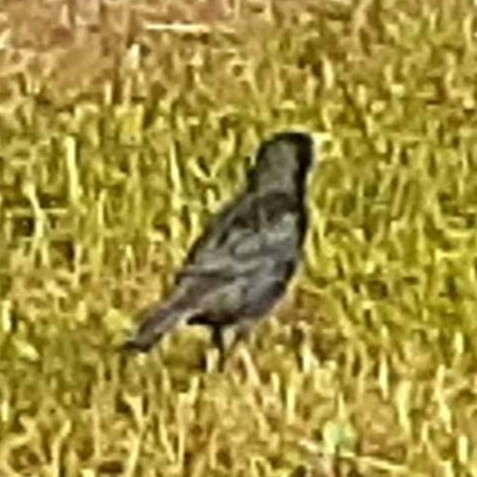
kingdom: Animalia
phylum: Chordata
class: Aves
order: Passeriformes
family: Sturnidae
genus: Sturnus
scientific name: Sturnus vulgaris
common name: Common starling
